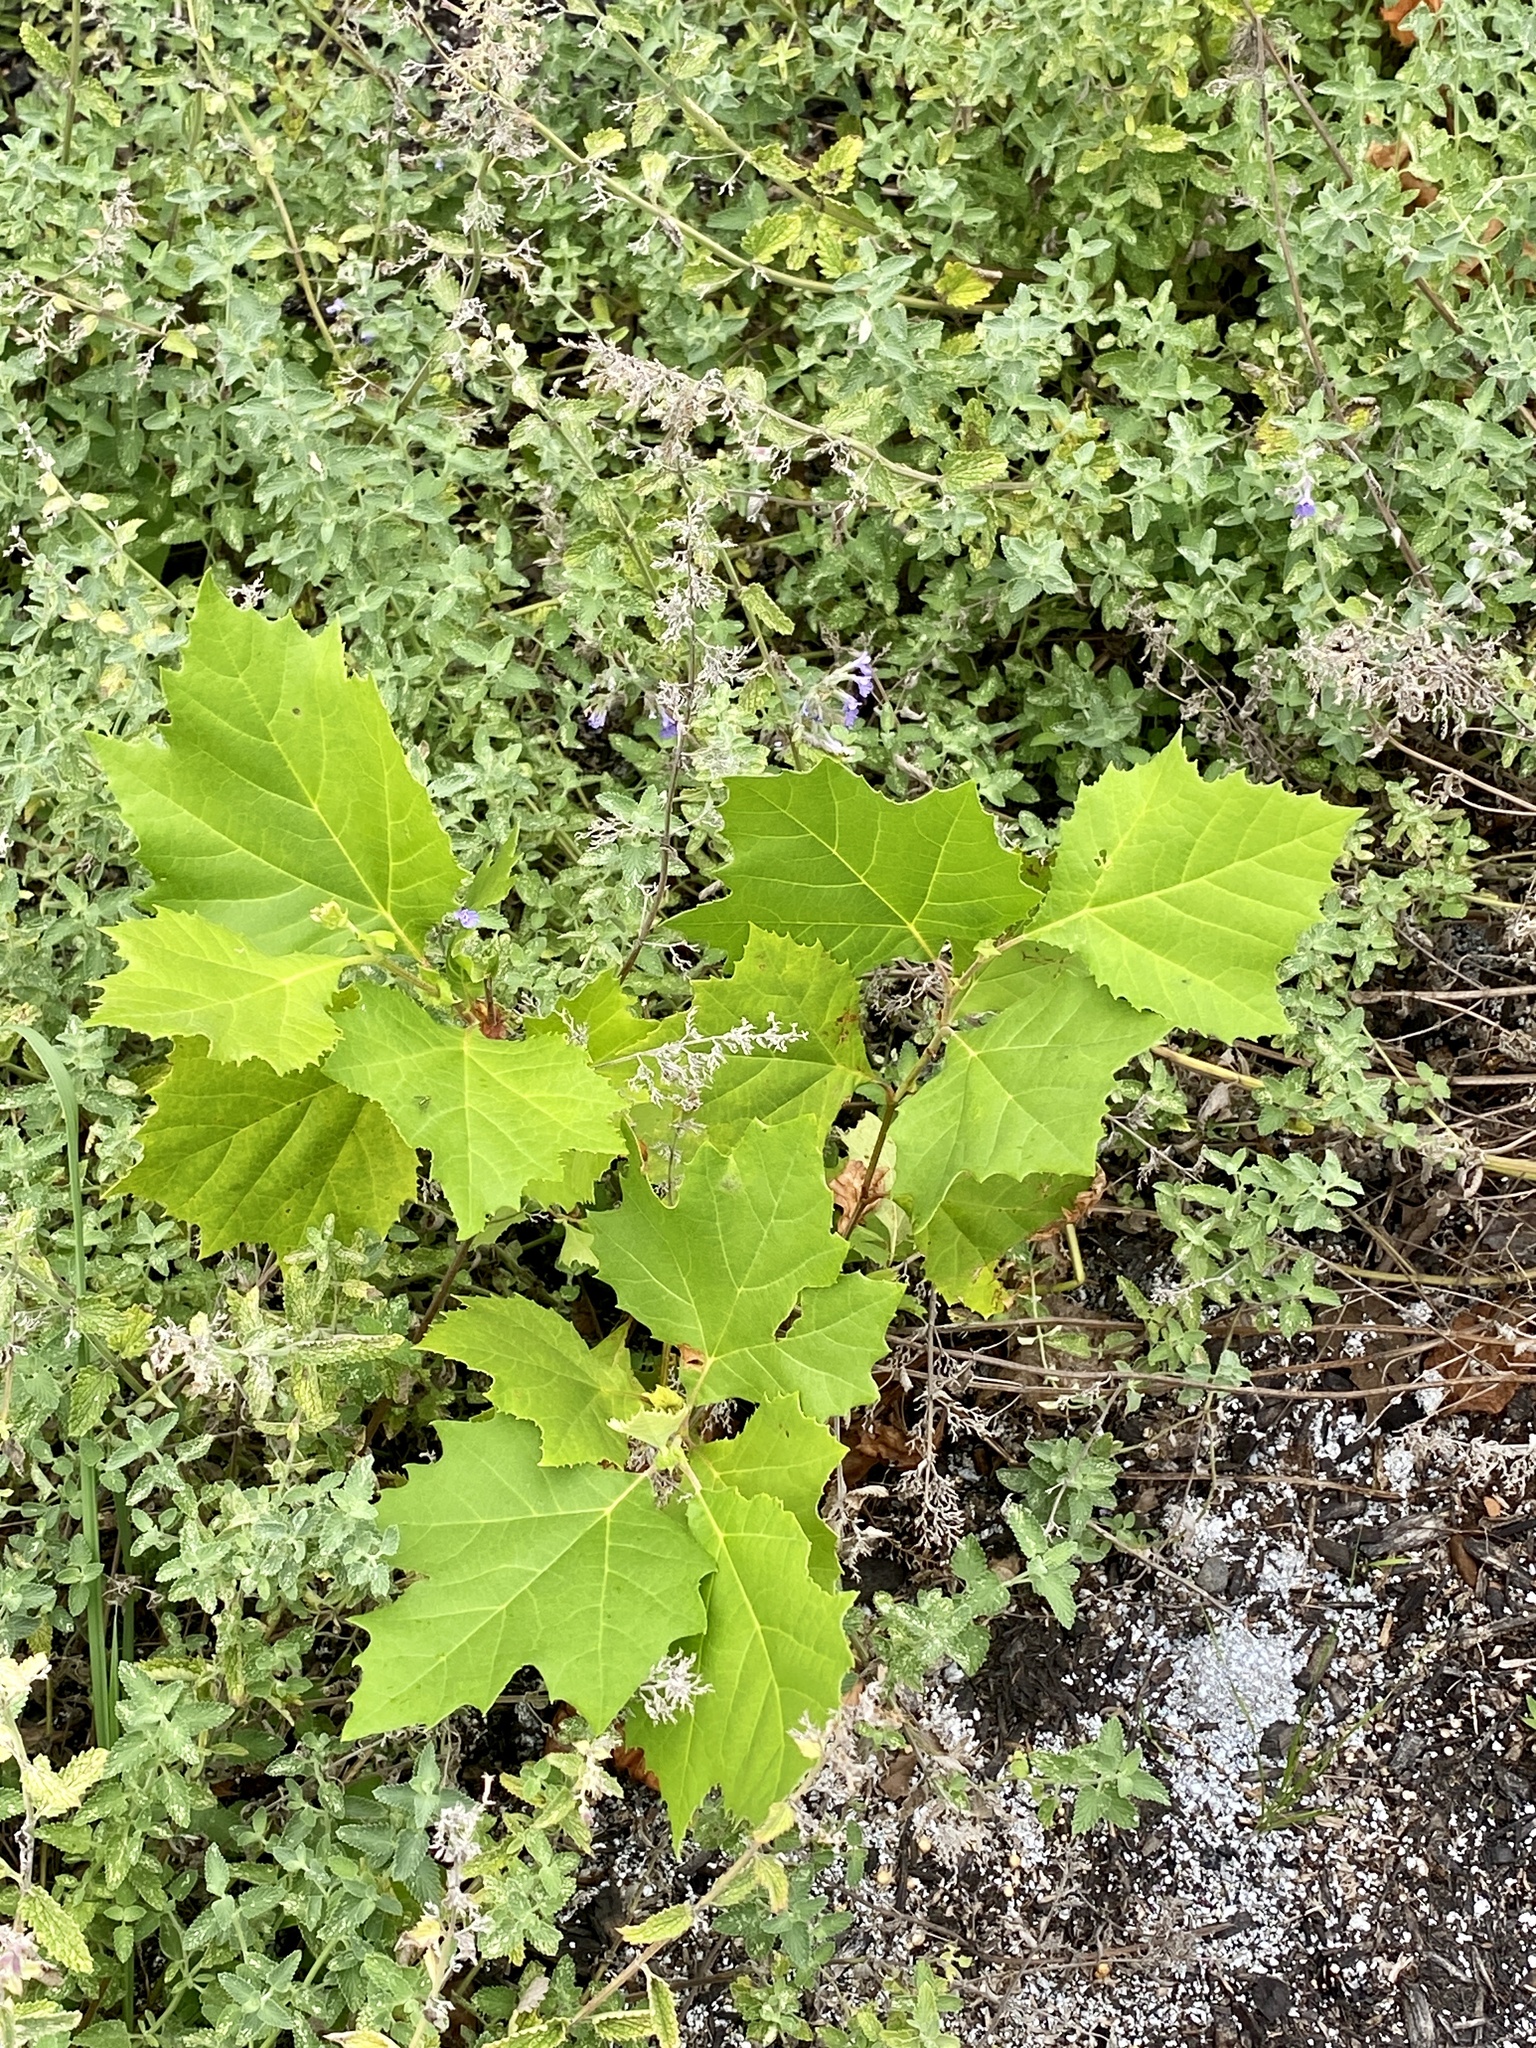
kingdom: Plantae
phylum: Tracheophyta
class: Magnoliopsida
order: Proteales
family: Platanaceae
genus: Platanus
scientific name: Platanus occidentalis
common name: American sycamore
